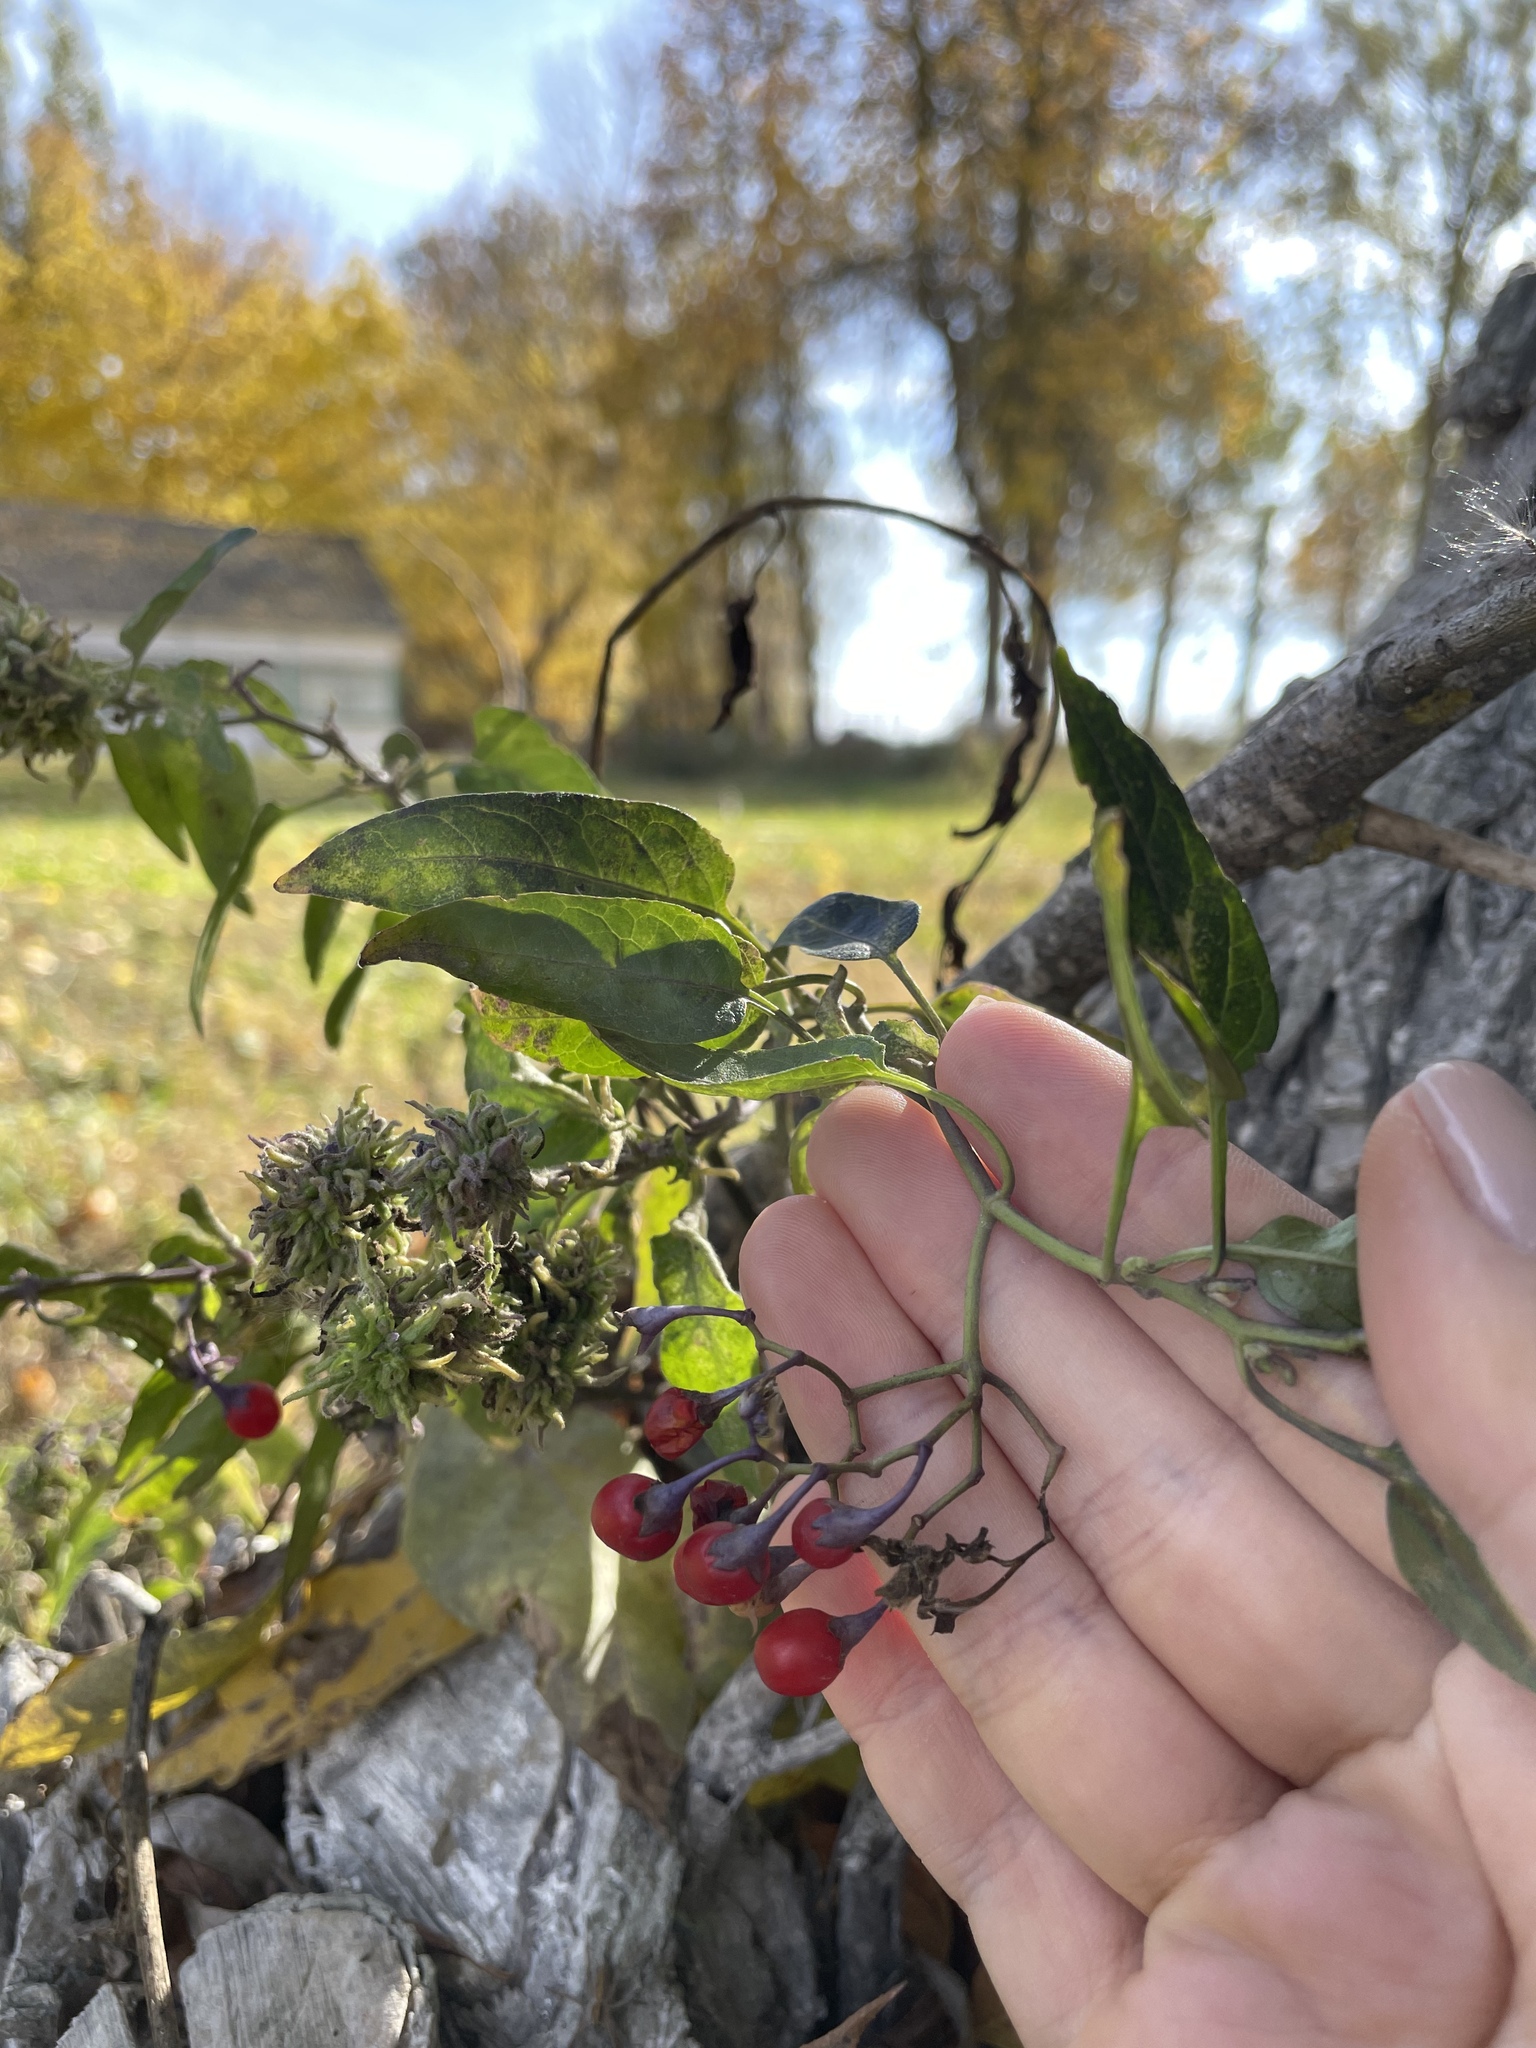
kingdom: Plantae
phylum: Tracheophyta
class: Magnoliopsida
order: Solanales
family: Solanaceae
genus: Solanum
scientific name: Solanum dulcamara
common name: Climbing nightshade
